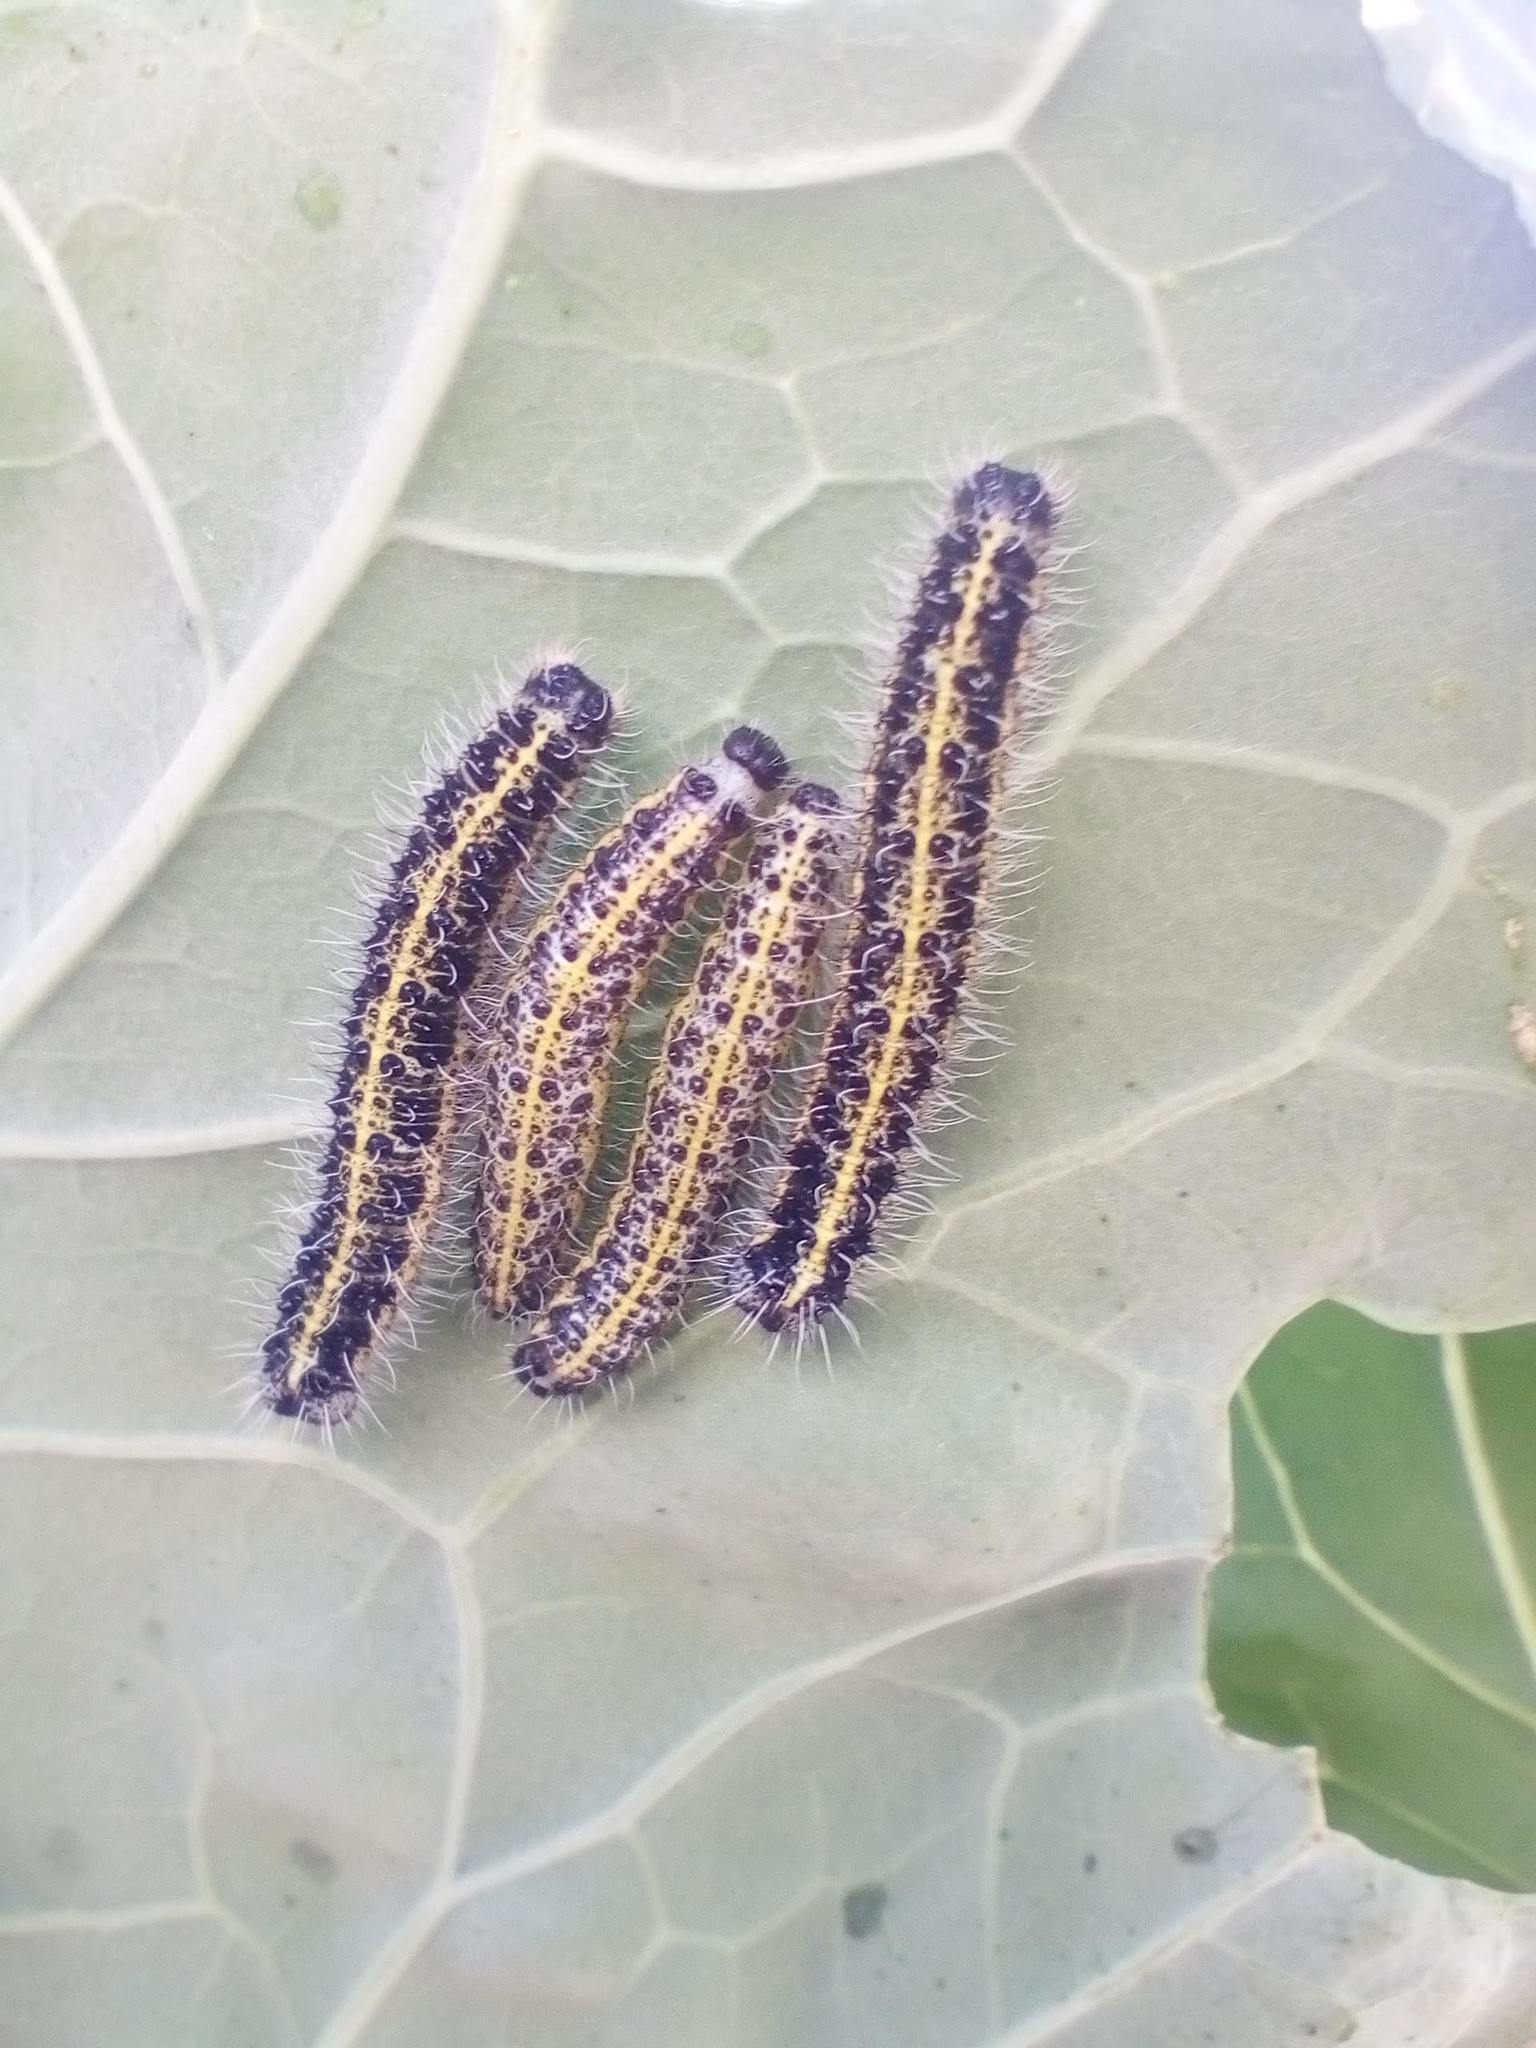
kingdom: Animalia
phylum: Arthropoda
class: Insecta
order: Lepidoptera
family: Pieridae
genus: Pieris
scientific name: Pieris brassicae
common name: Large white
